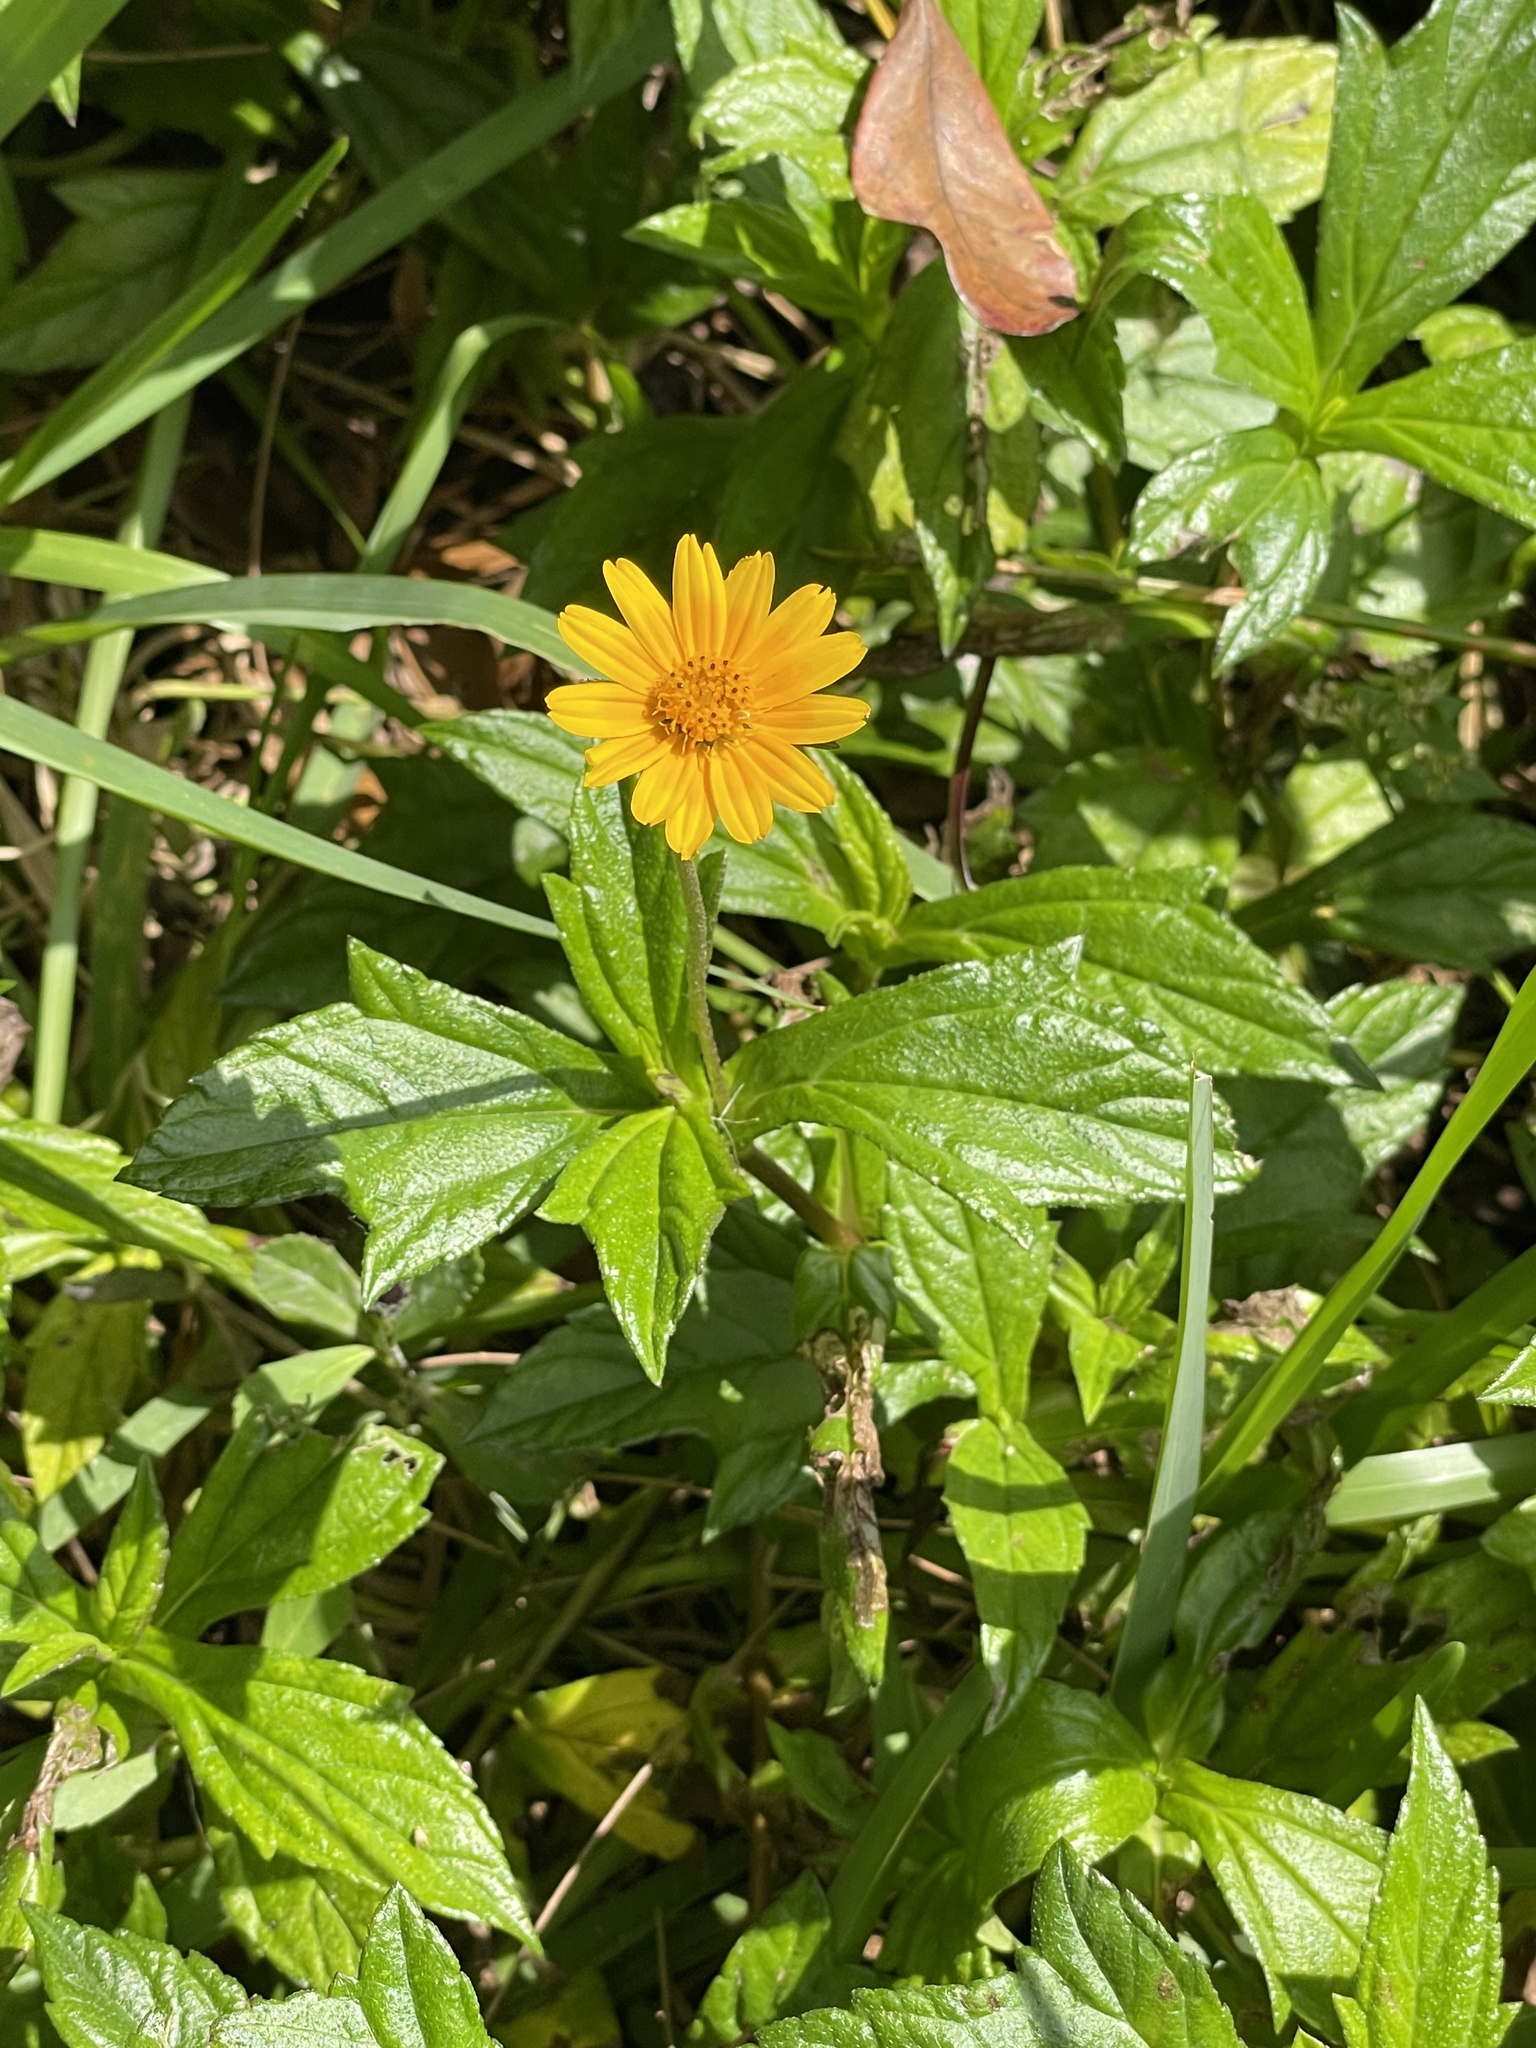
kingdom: Plantae
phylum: Tracheophyta
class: Magnoliopsida
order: Asterales
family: Asteraceae
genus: Sphagneticola
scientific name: Sphagneticola trilobata
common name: Bay biscayne creeping-oxeye
